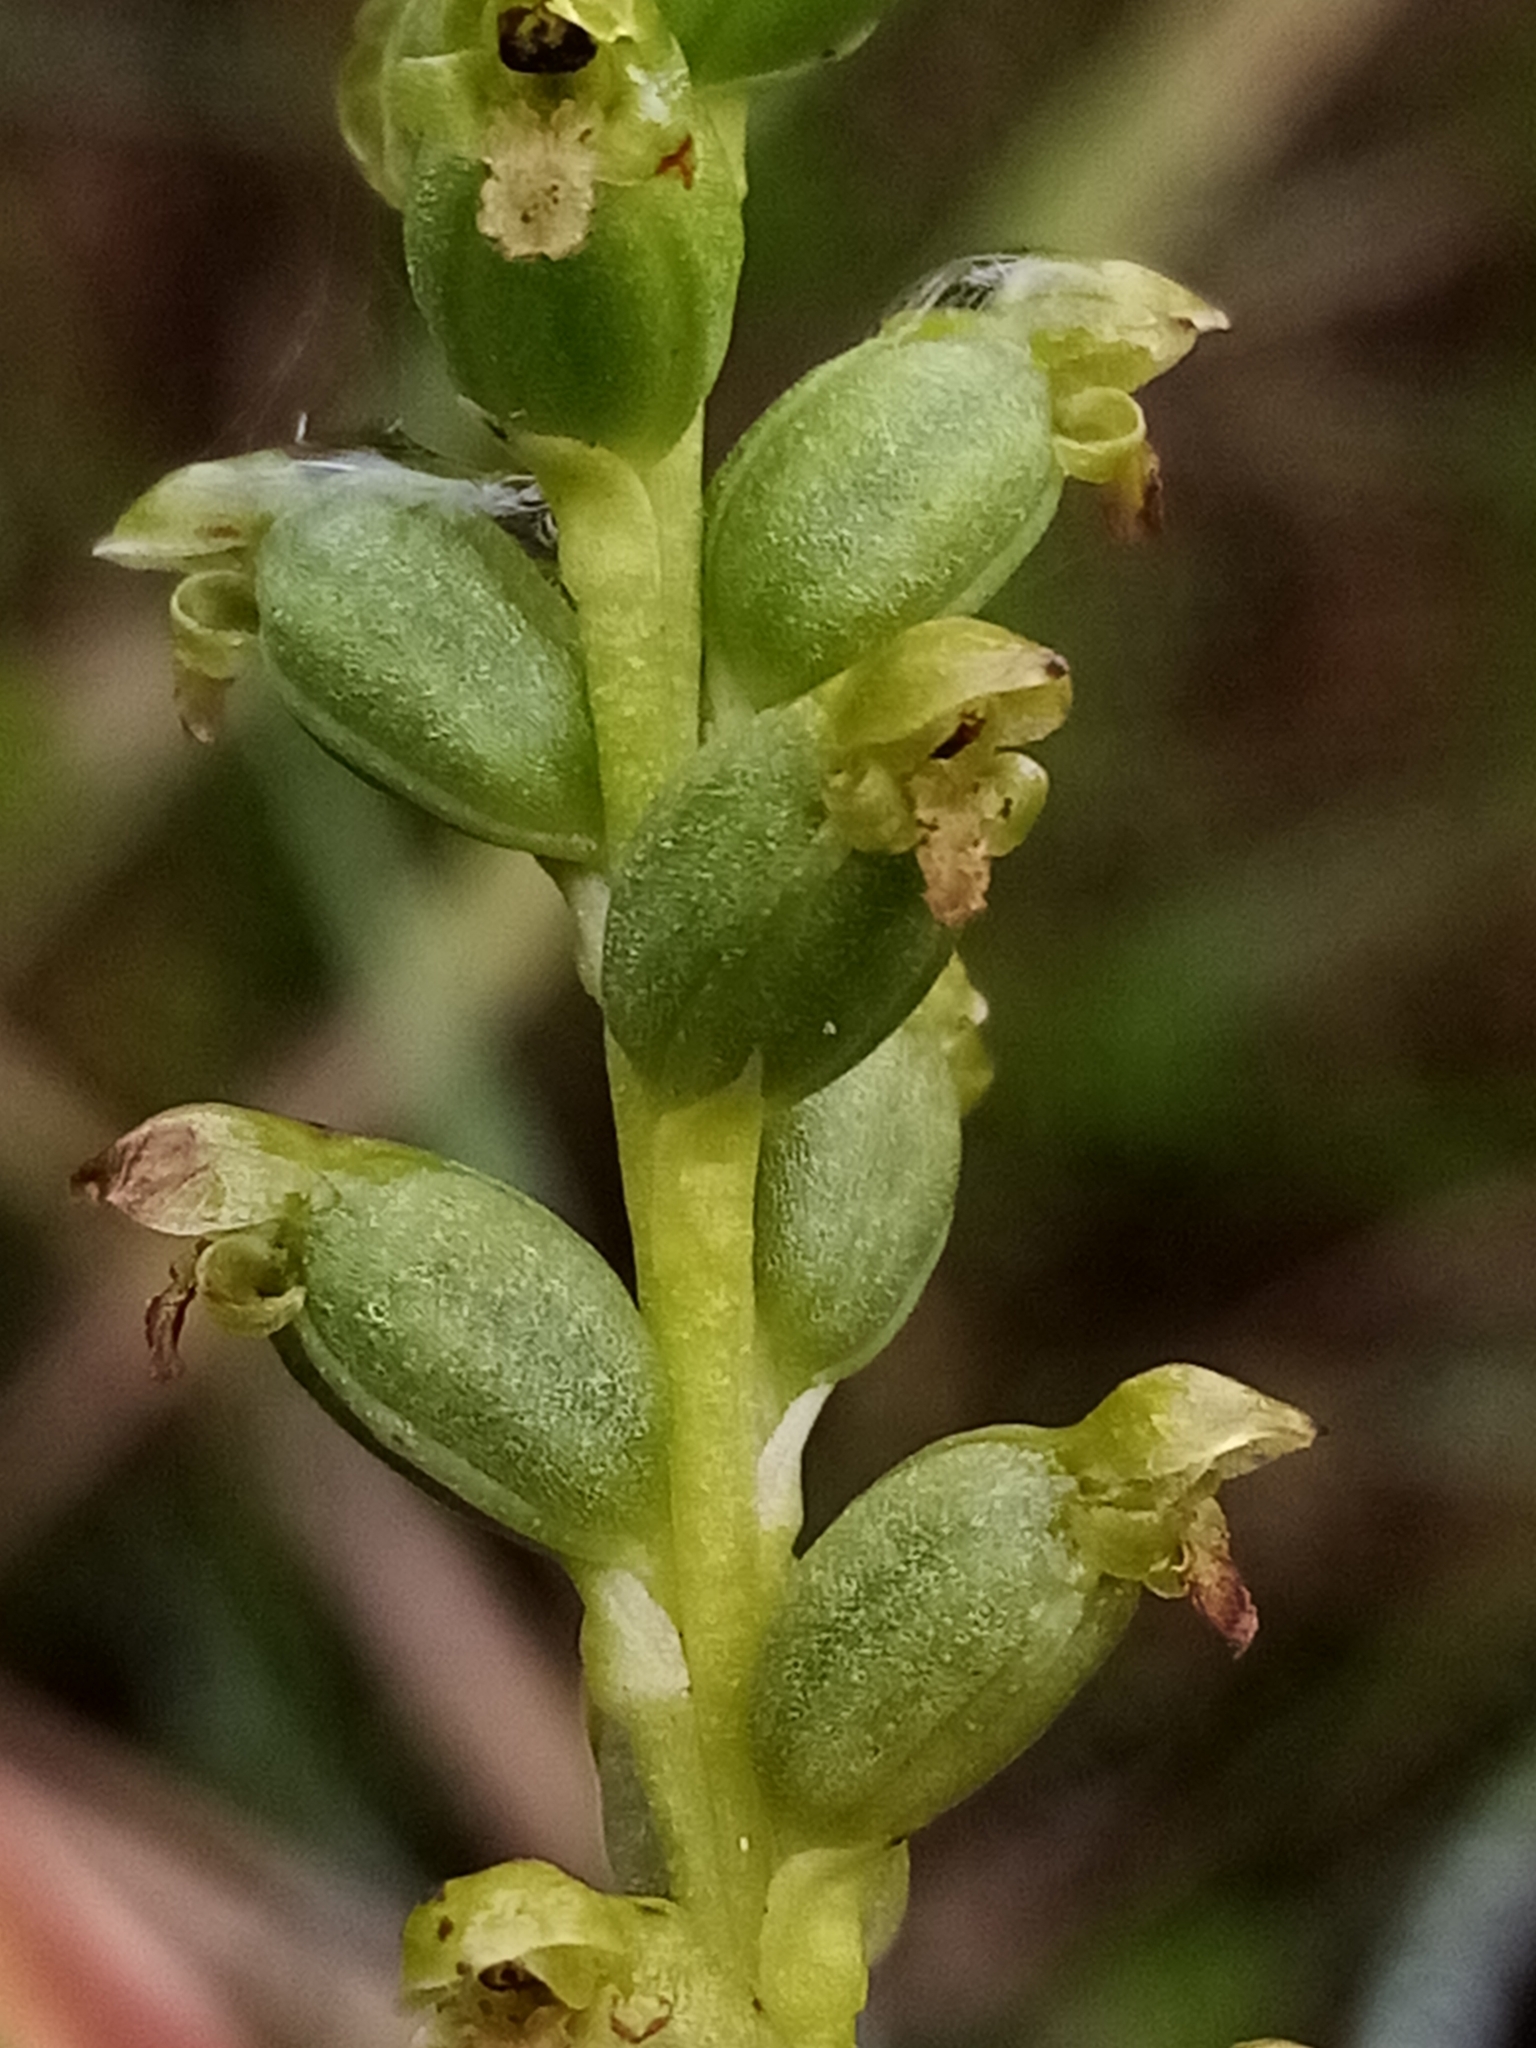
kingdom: Plantae
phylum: Tracheophyta
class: Liliopsida
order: Asparagales
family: Orchidaceae
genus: Microtis
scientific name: Microtis unifolia
